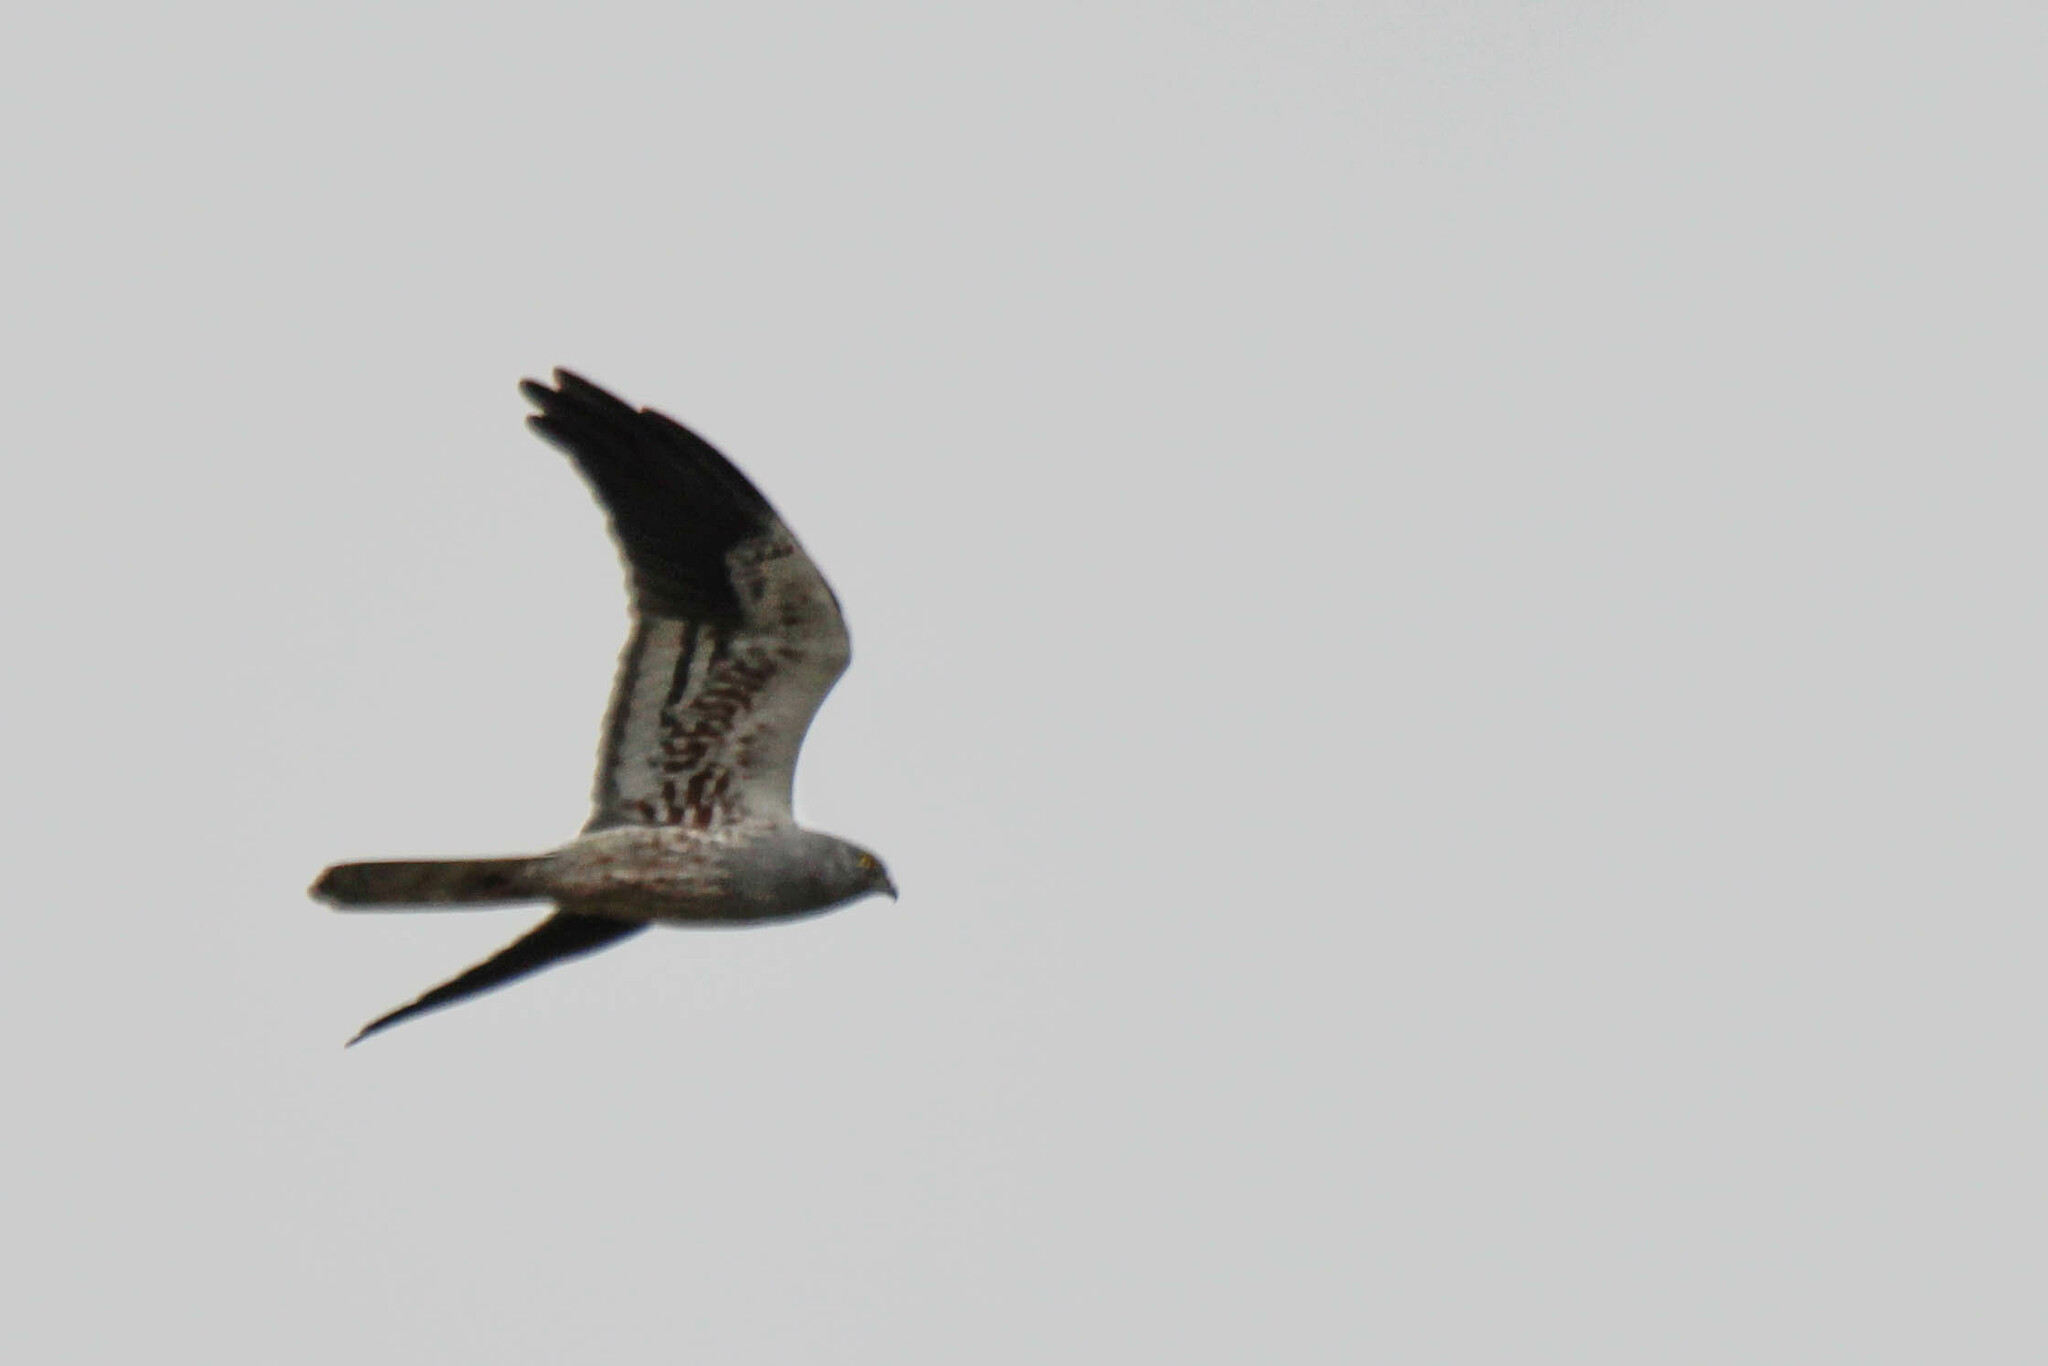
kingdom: Animalia
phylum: Chordata
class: Aves
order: Accipitriformes
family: Accipitridae
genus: Circus
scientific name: Circus pygargus
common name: Montagu's harrier
